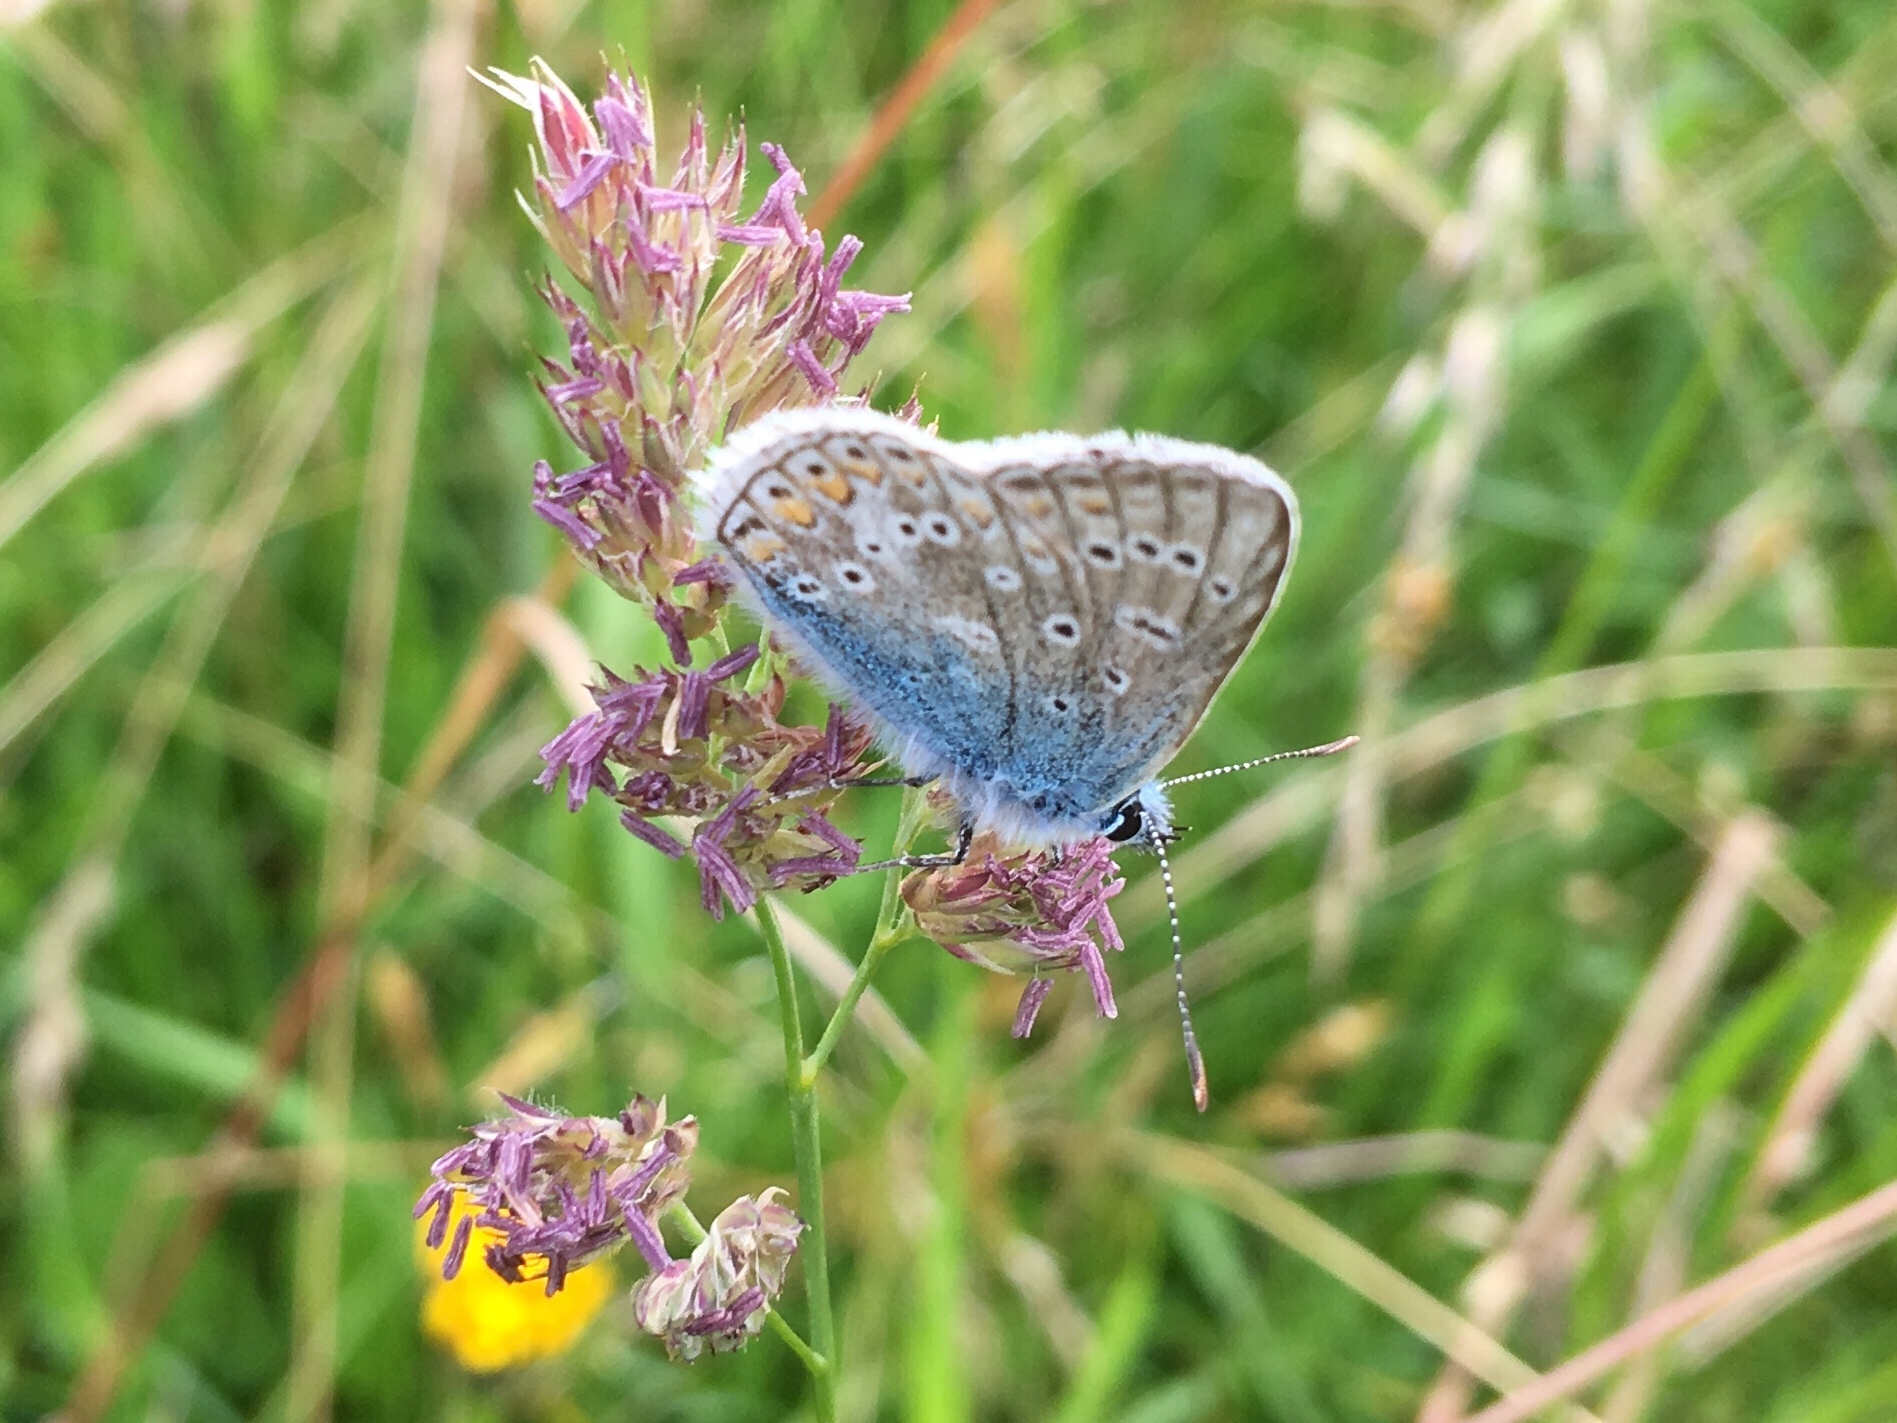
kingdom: Animalia
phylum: Arthropoda
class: Insecta
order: Lepidoptera
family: Lycaenidae
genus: Polyommatus
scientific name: Polyommatus icarus
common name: Common blue
